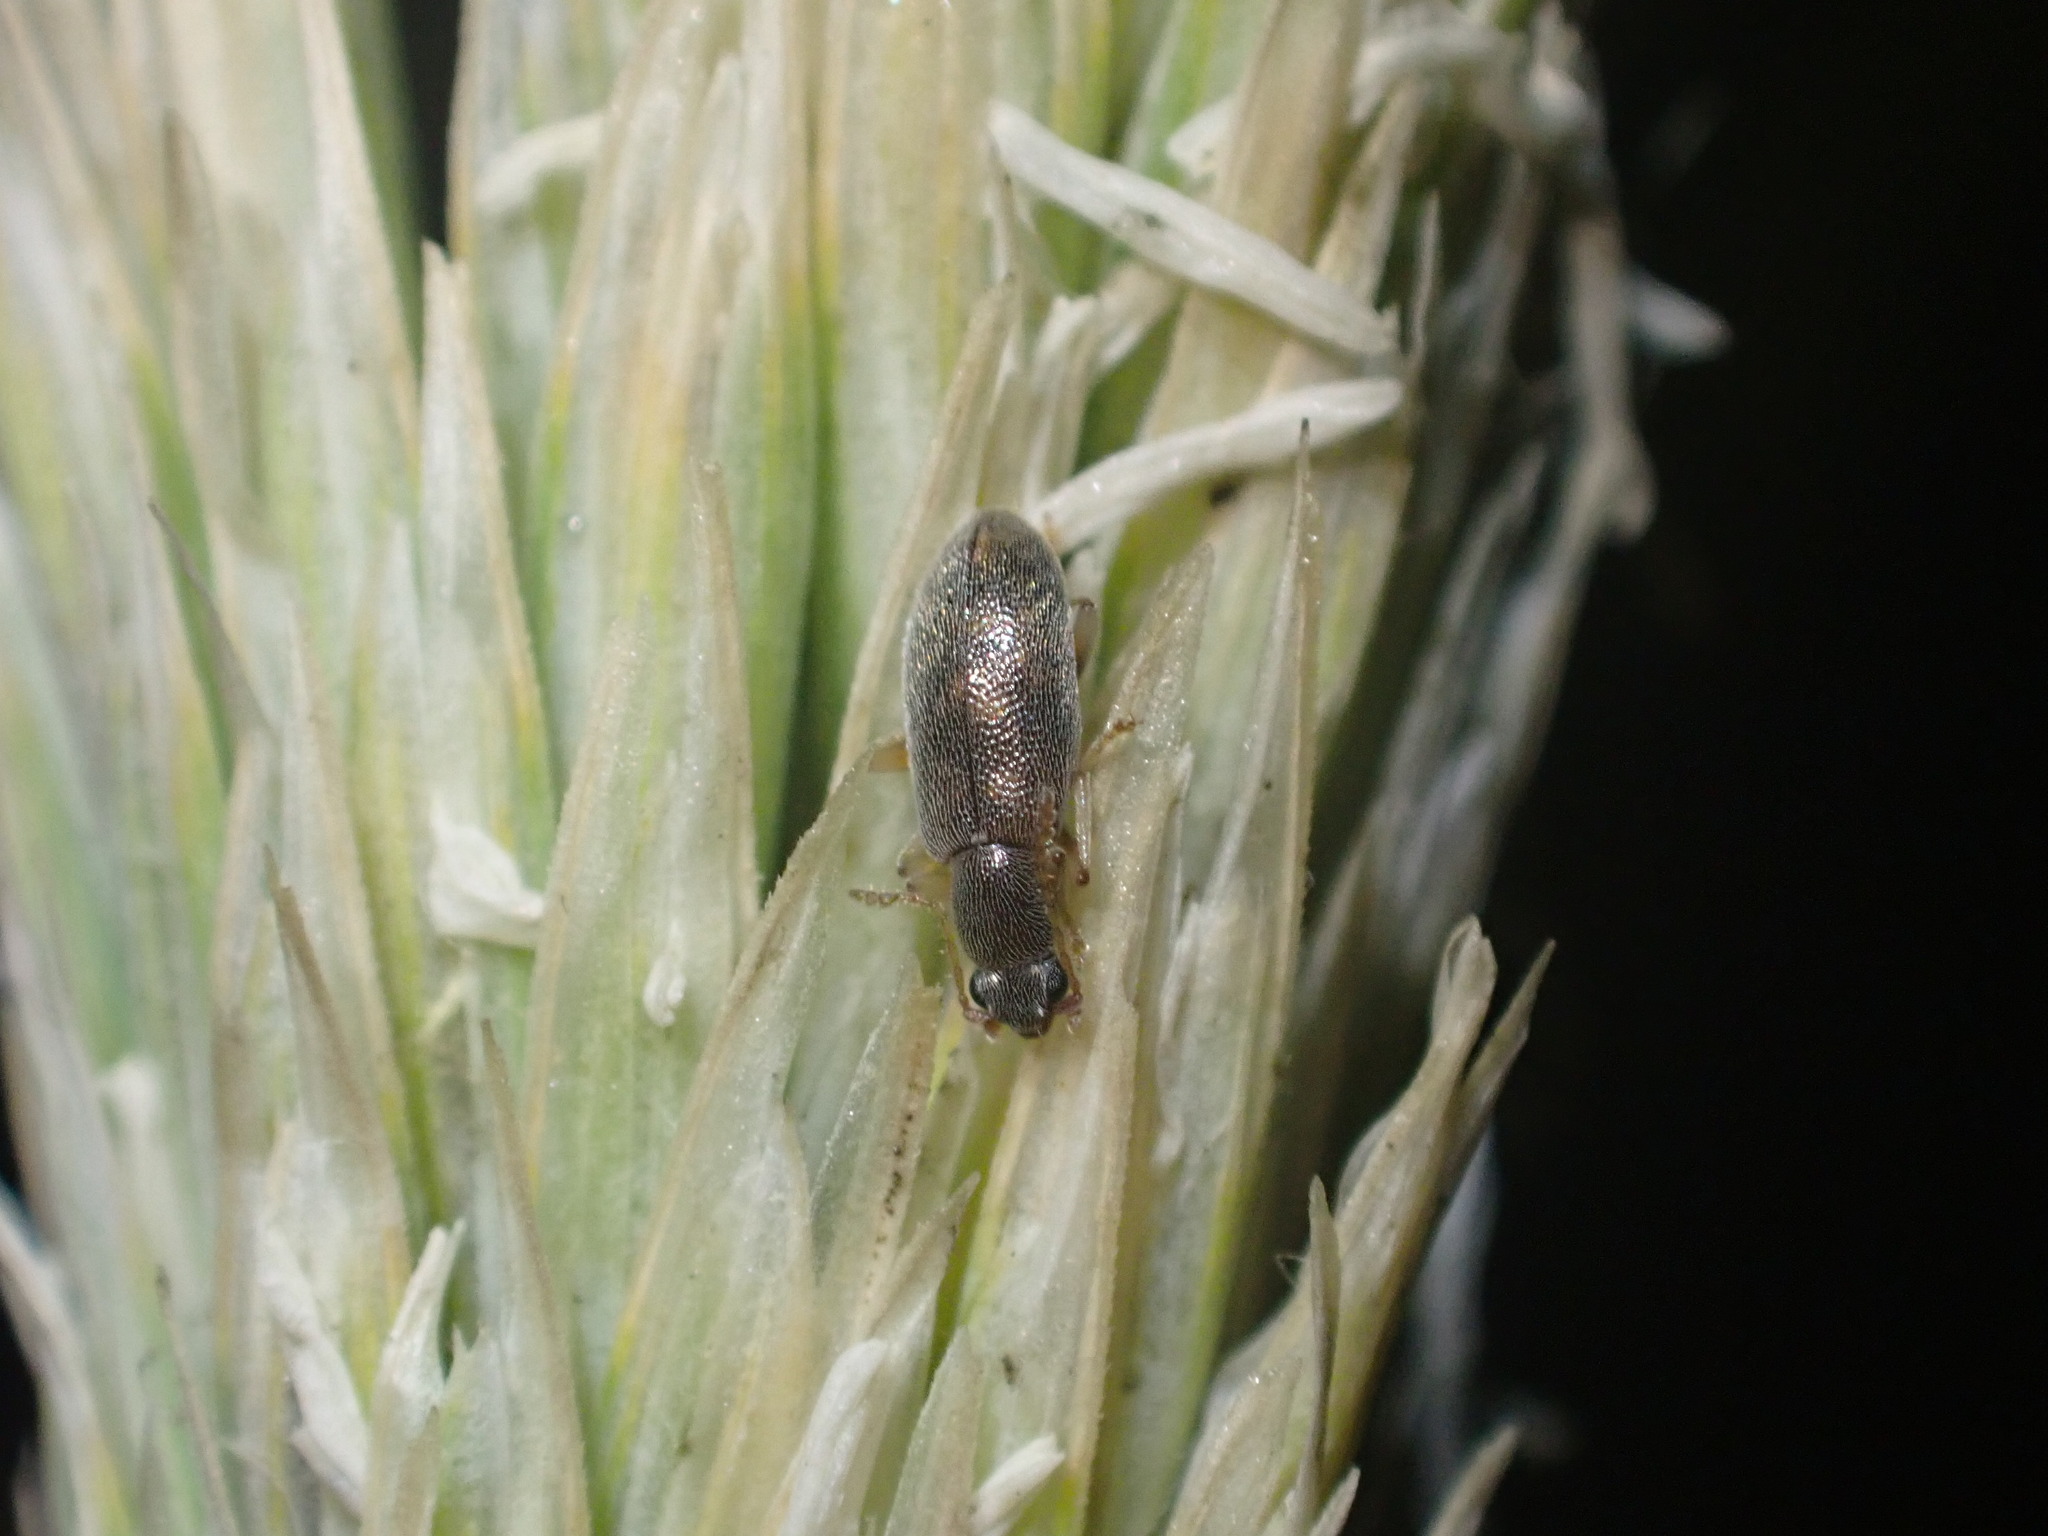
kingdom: Animalia
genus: Lagrioda
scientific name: Lagrioda brounii
